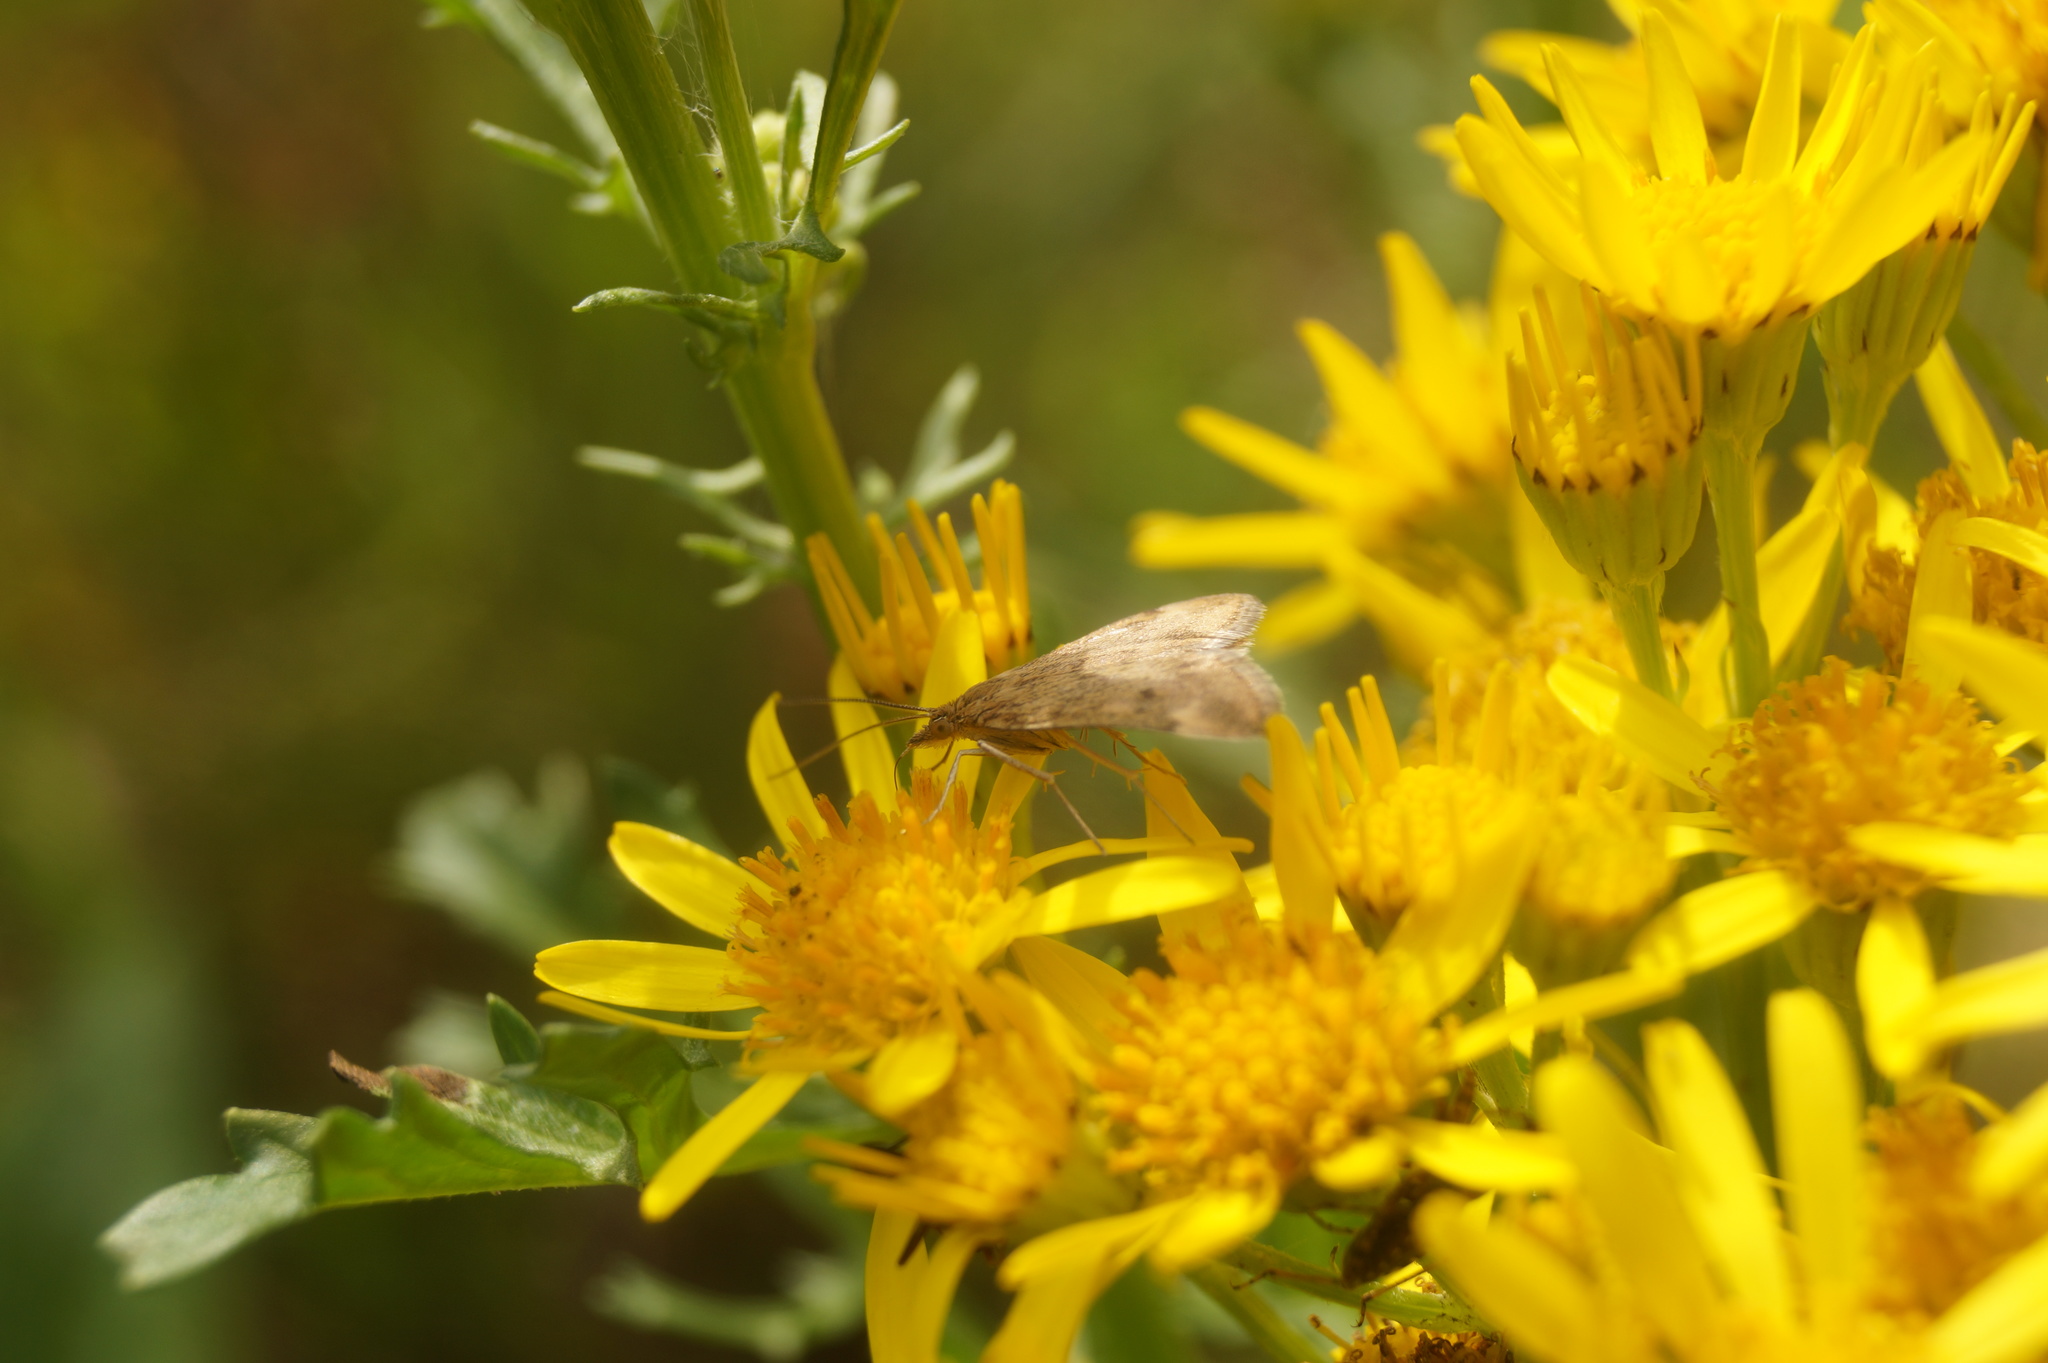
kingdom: Animalia
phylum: Arthropoda
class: Insecta
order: Lepidoptera
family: Crambidae
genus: Pyrausta
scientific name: Pyrausta despicata
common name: Straw-barred pearl
